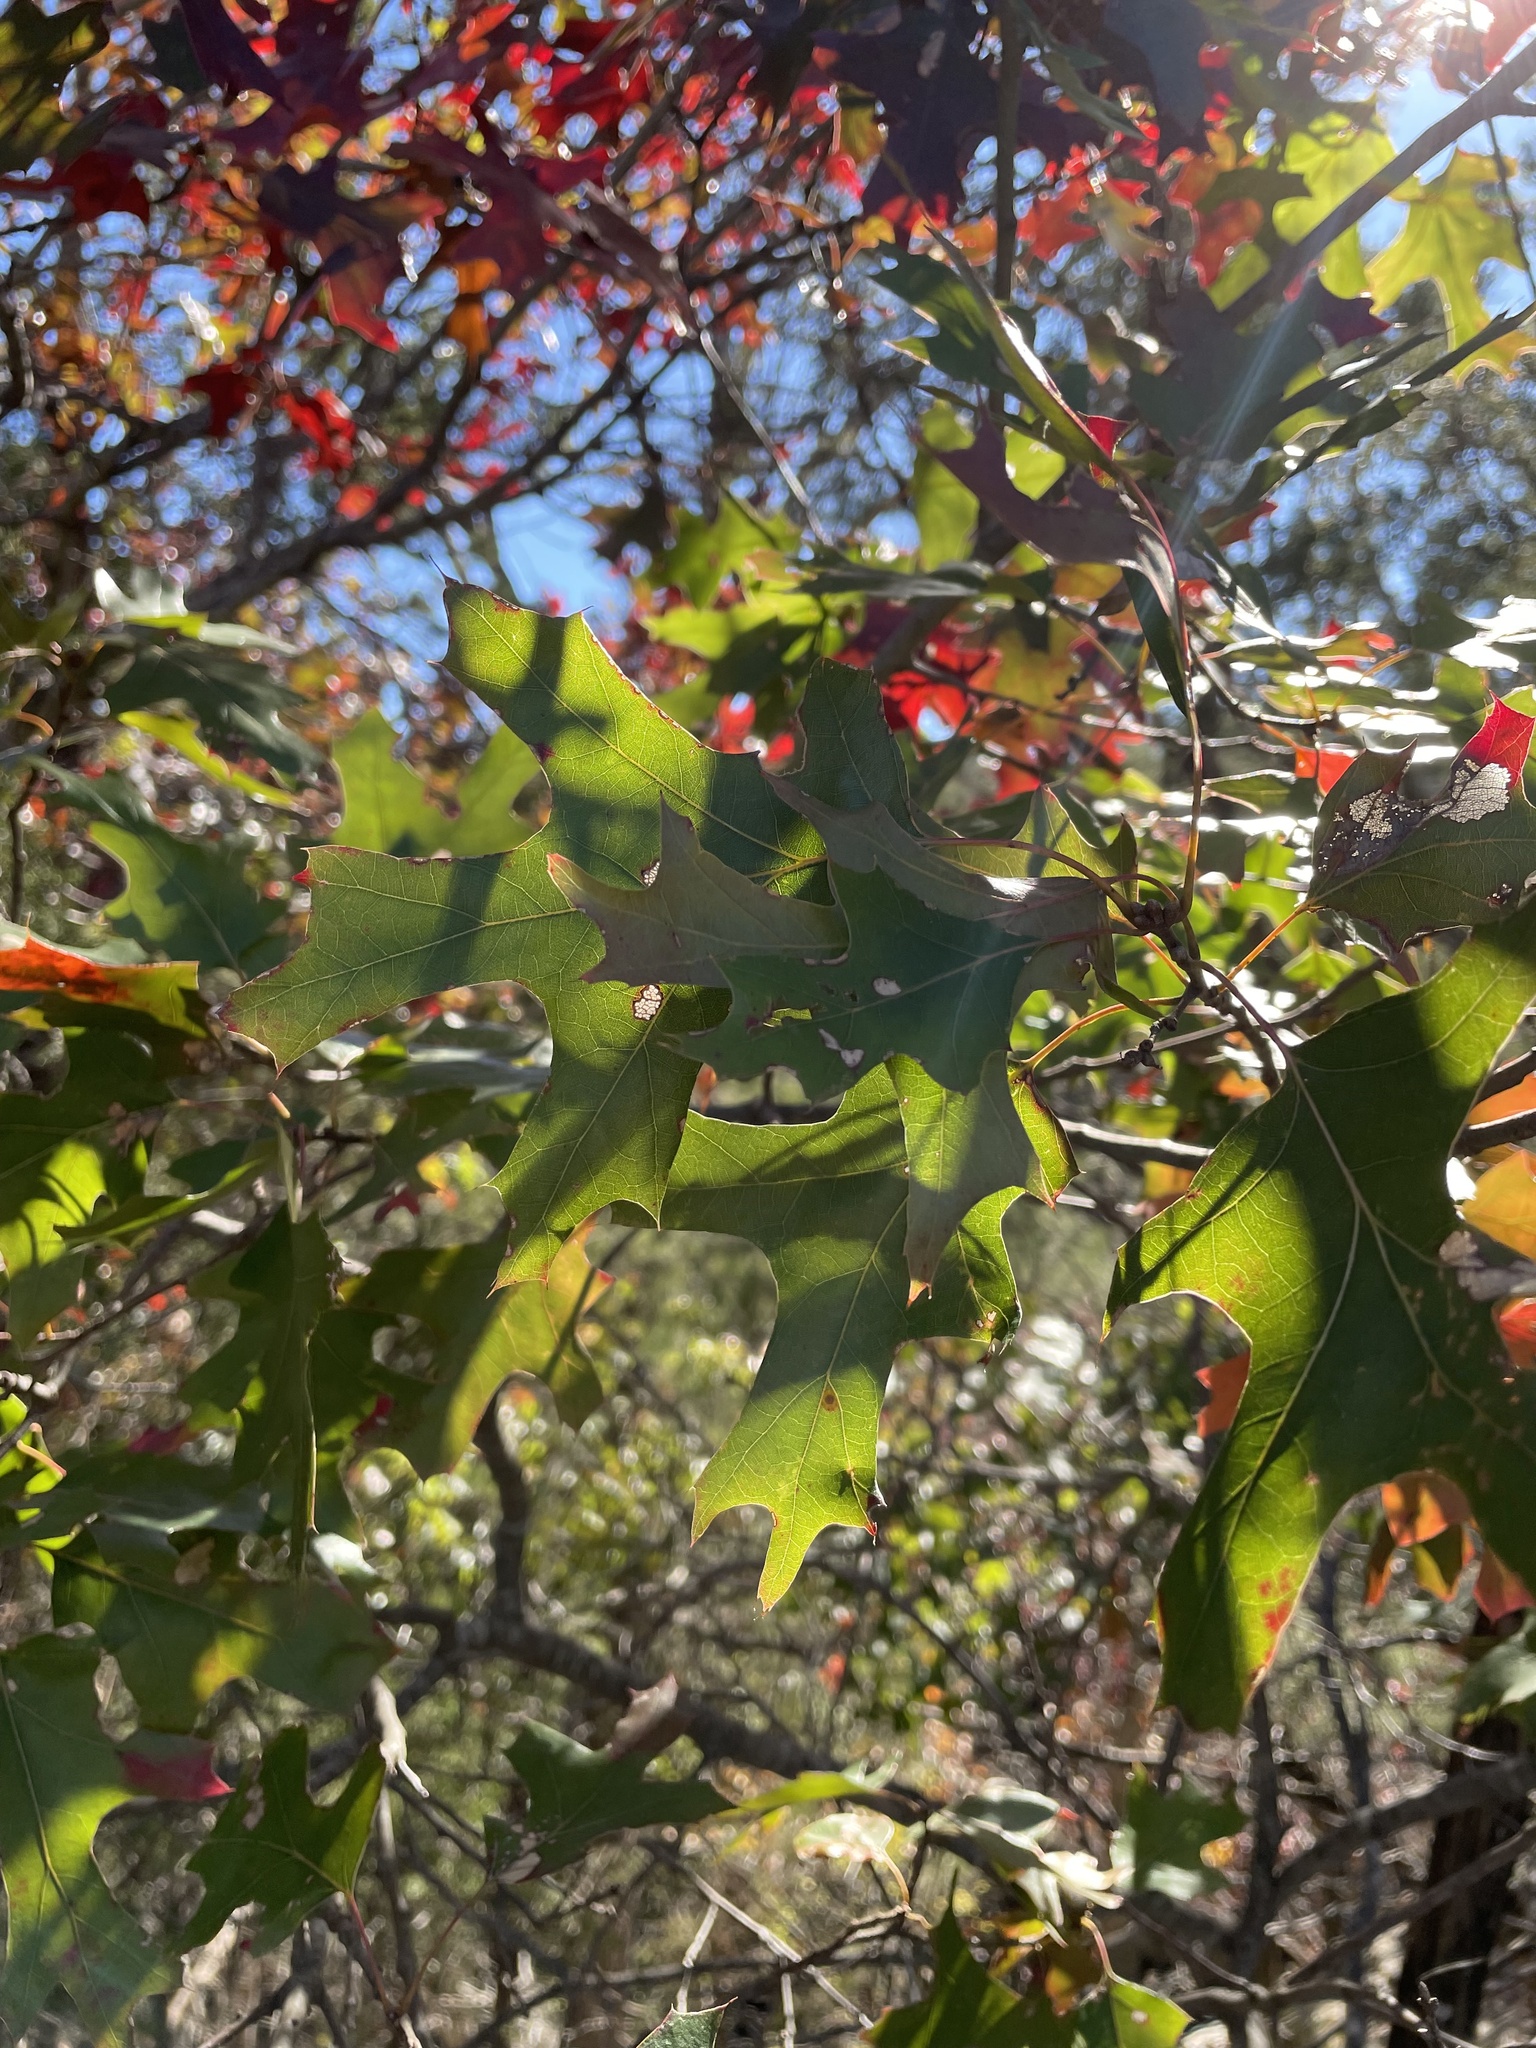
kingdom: Plantae
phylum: Tracheophyta
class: Magnoliopsida
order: Fagales
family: Fagaceae
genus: Quercus
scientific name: Quercus buckleyi
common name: Buckley oak
